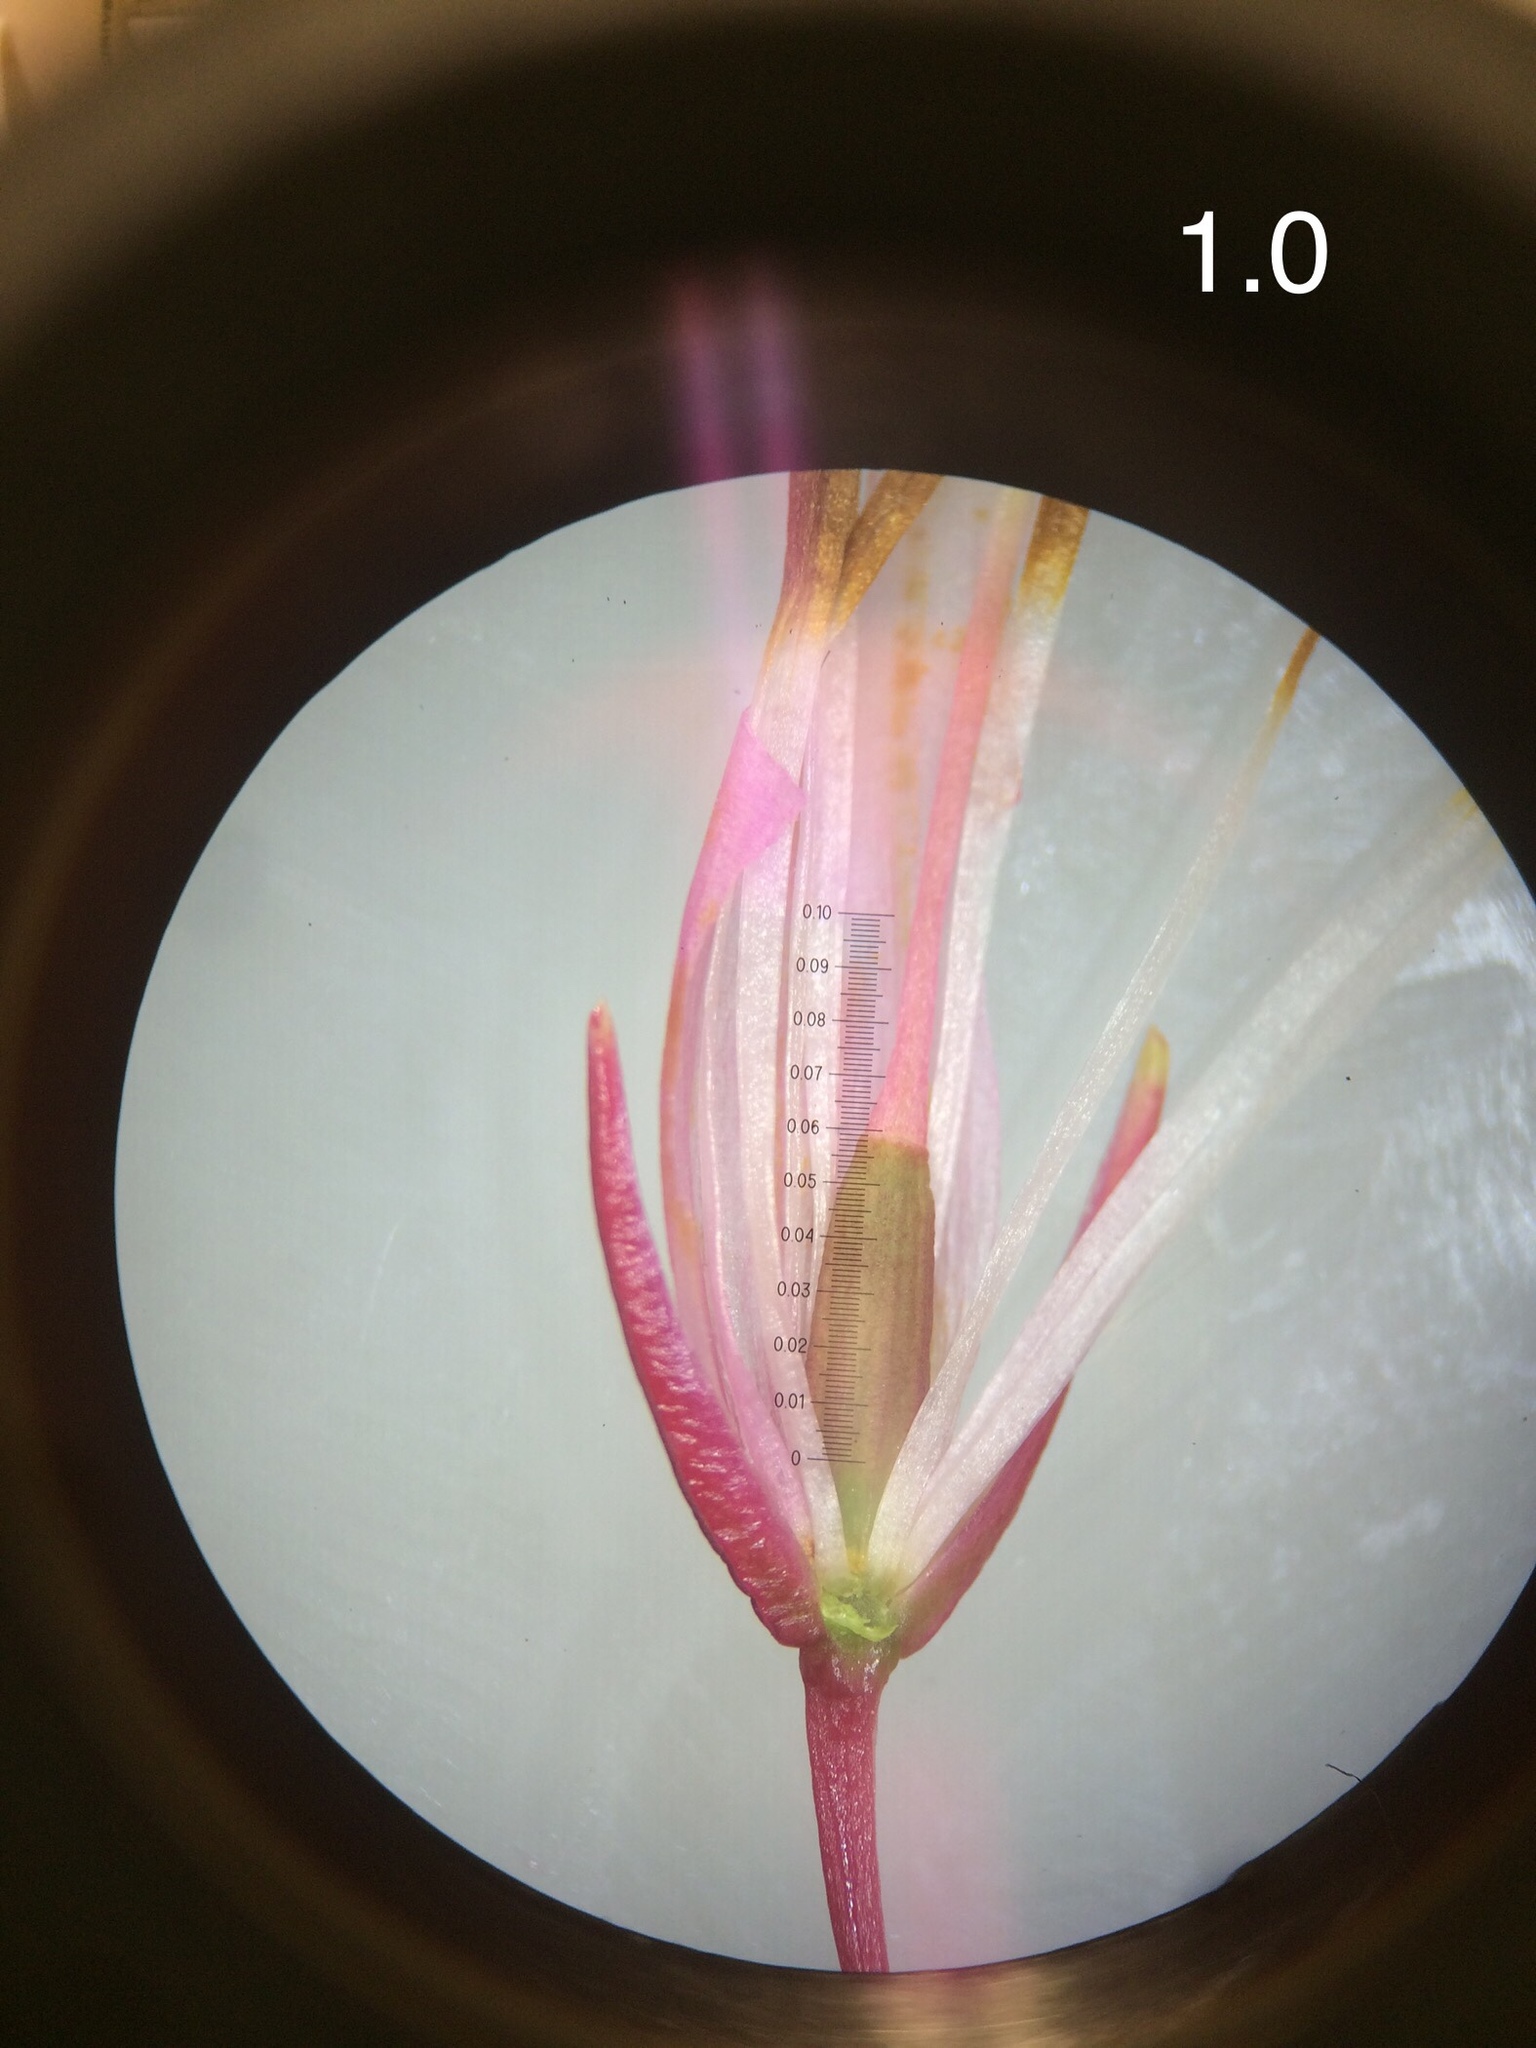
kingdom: Plantae
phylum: Tracheophyta
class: Magnoliopsida
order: Ericales
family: Ericaceae
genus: Erica
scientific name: Erica plukenetii
